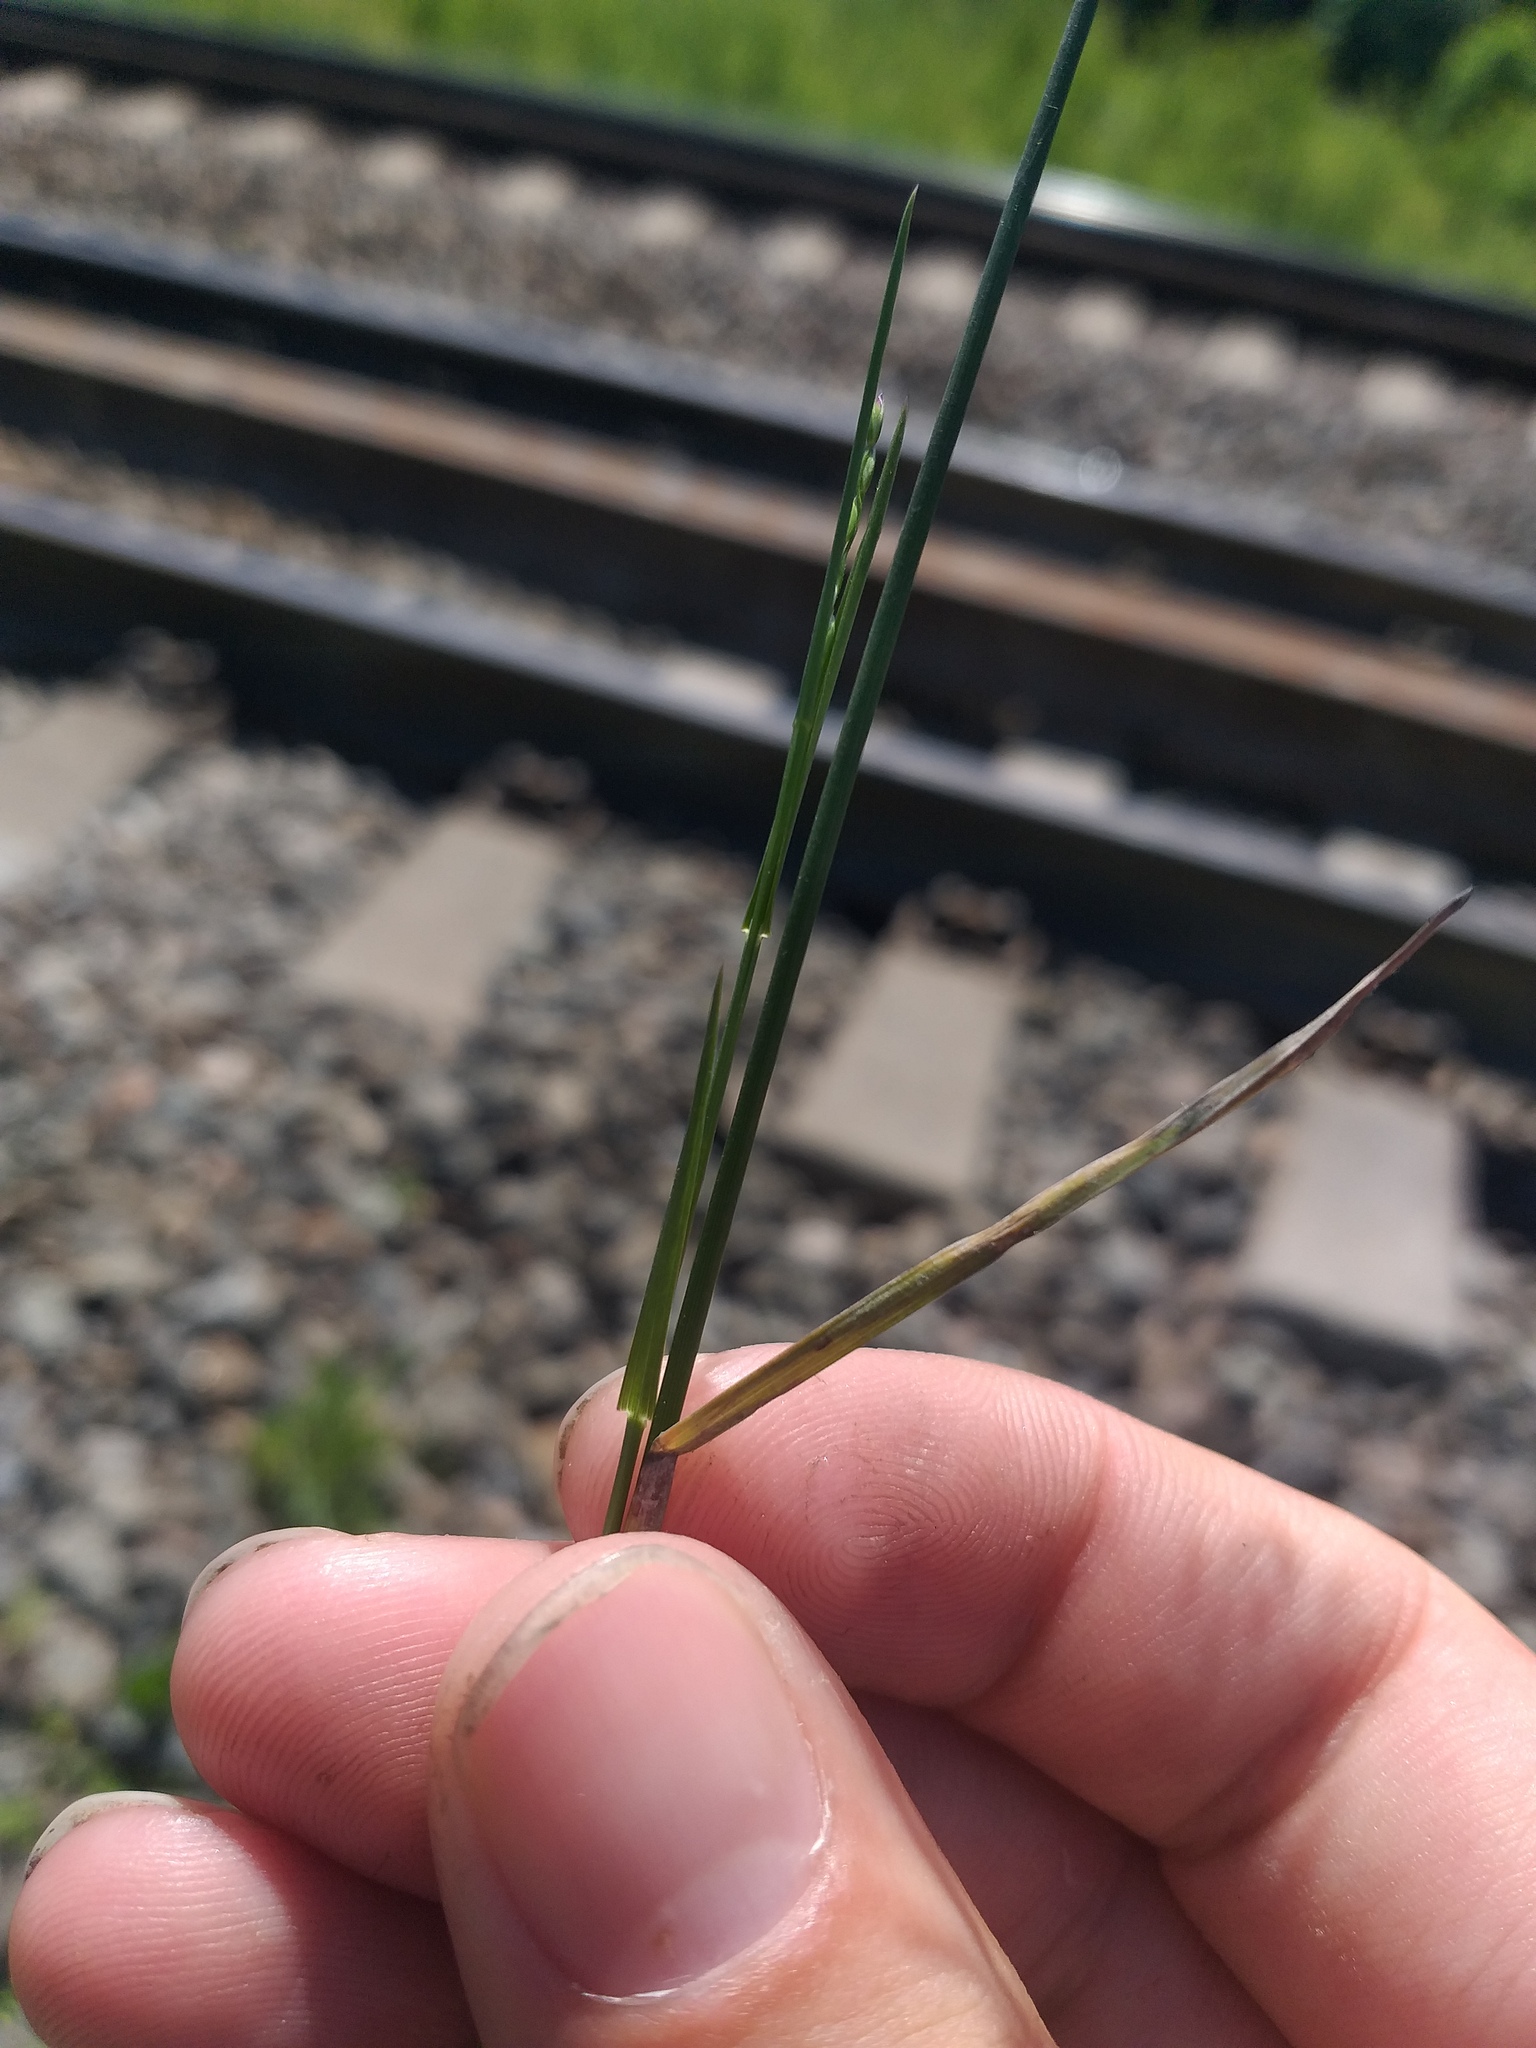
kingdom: Plantae
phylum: Tracheophyta
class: Liliopsida
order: Poales
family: Poaceae
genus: Poa
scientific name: Poa compressa
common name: Canada bluegrass
